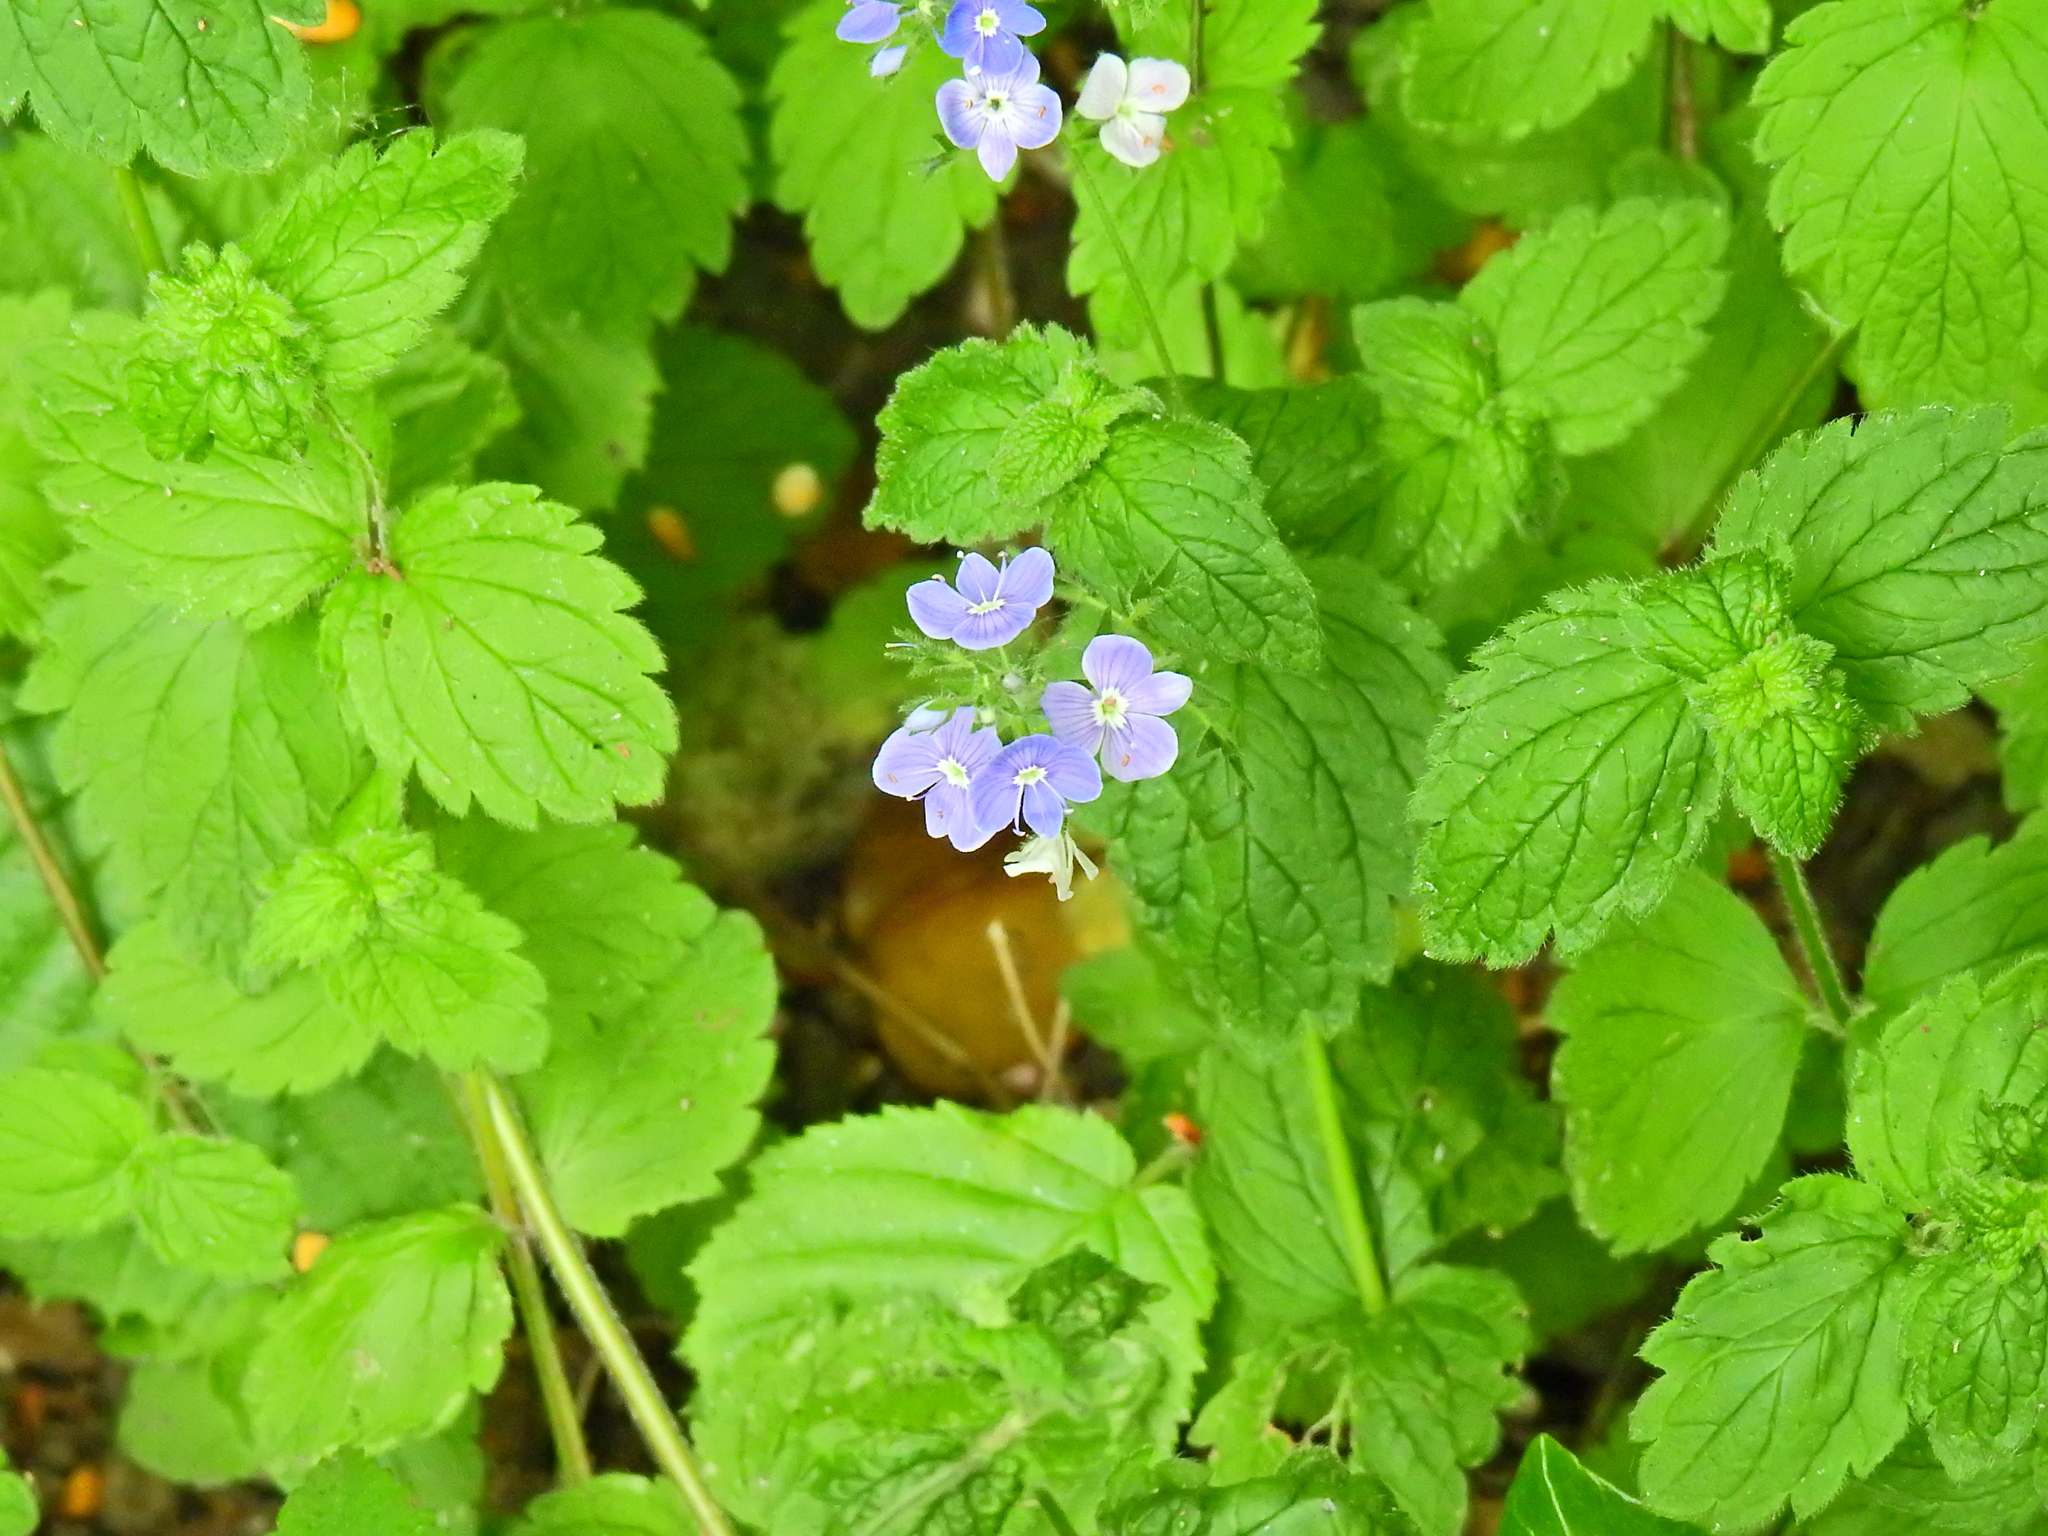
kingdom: Plantae
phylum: Tracheophyta
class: Magnoliopsida
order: Lamiales
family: Plantaginaceae
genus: Veronica
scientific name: Veronica chamaedrys
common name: Germander speedwell
